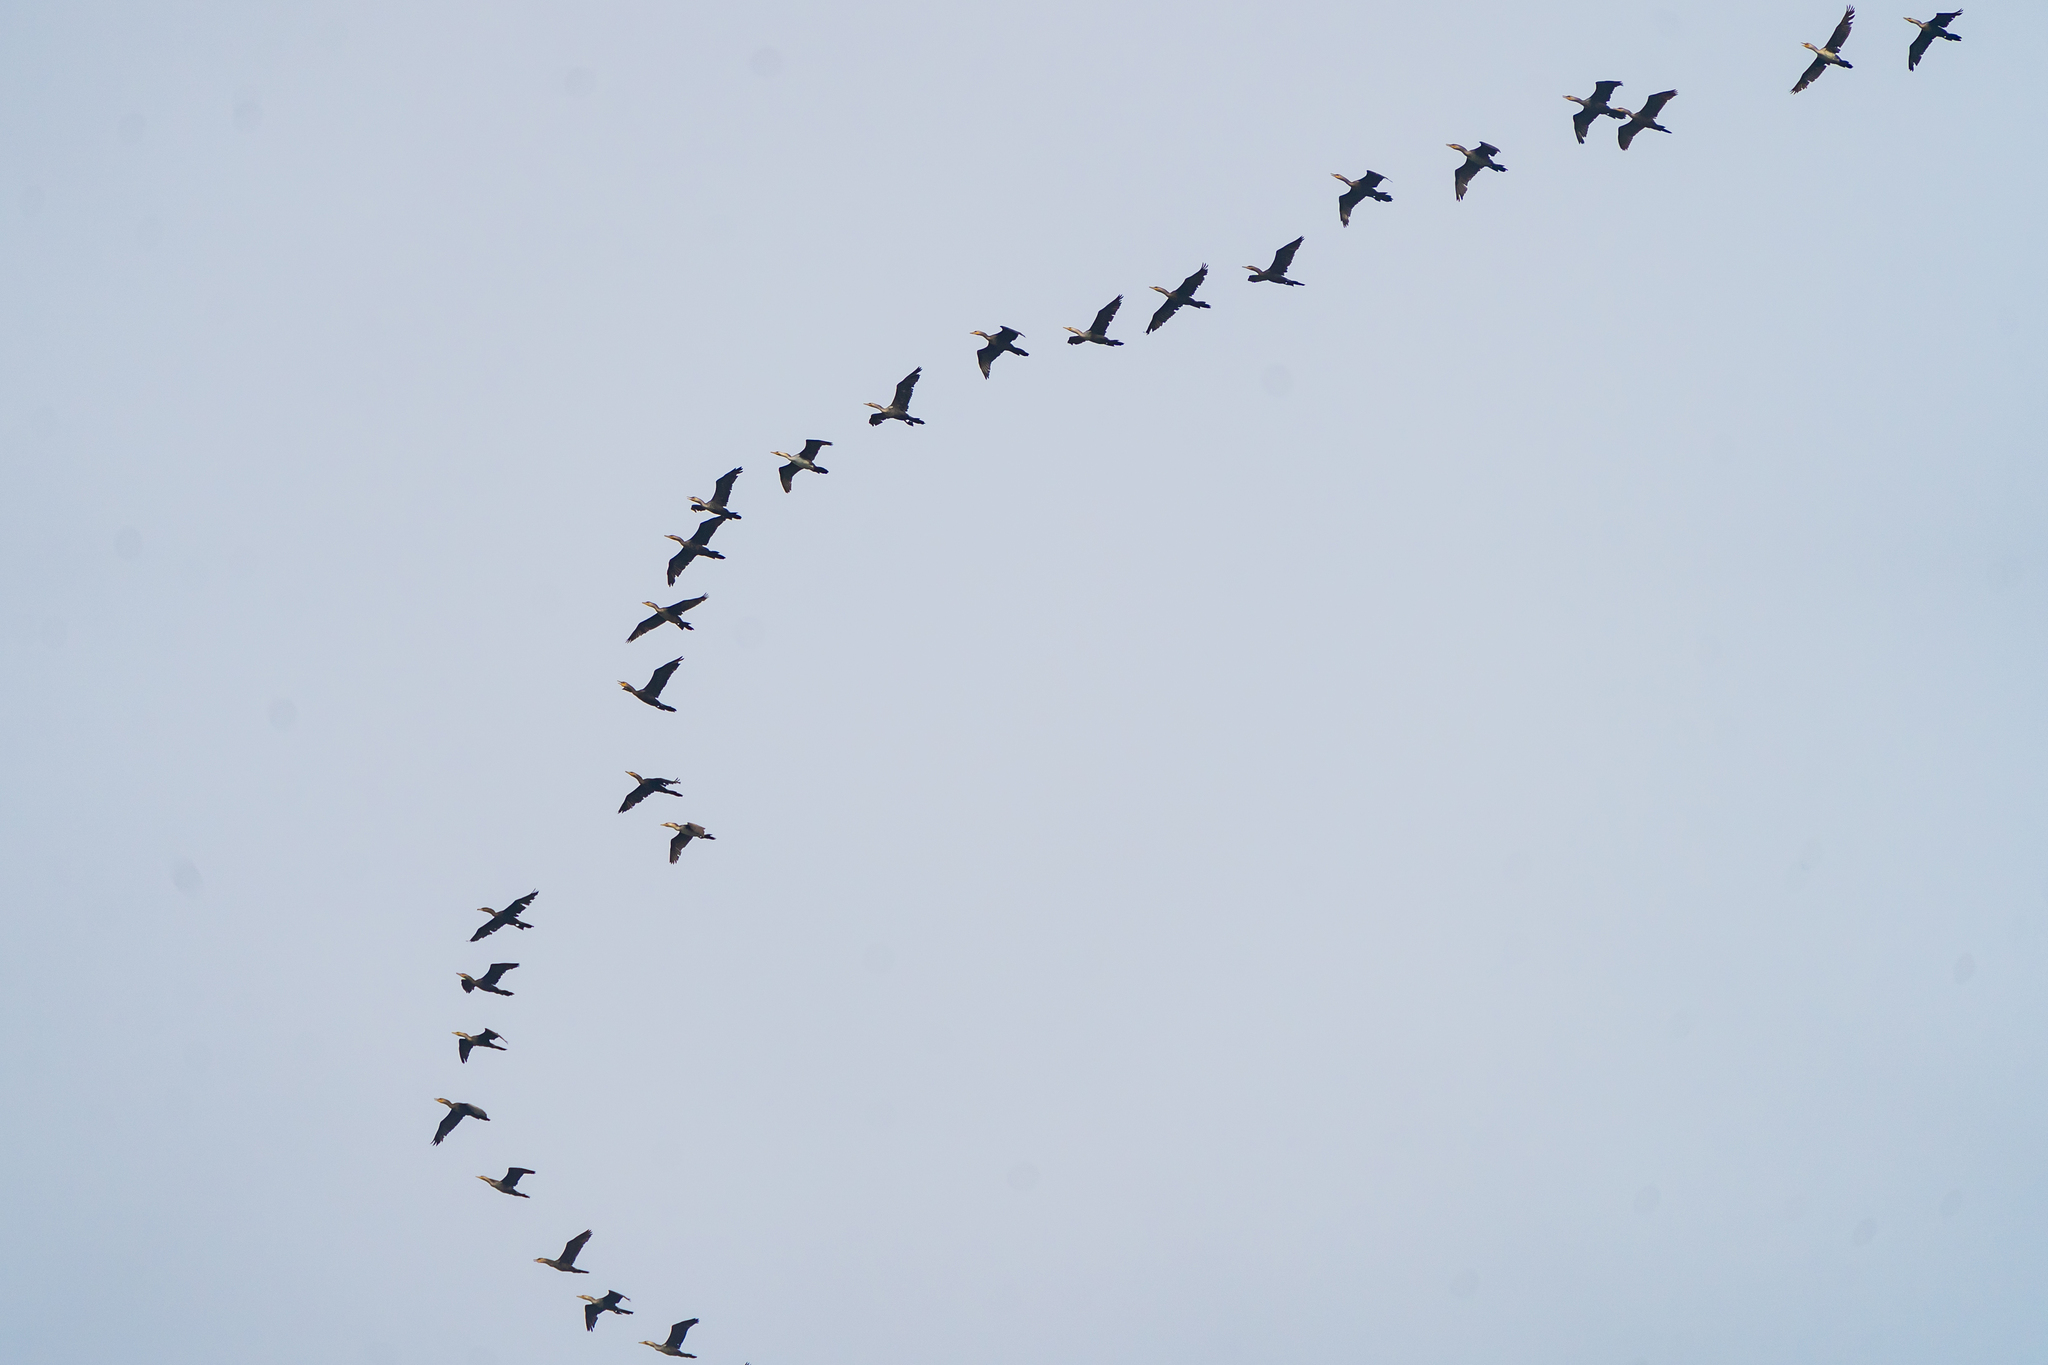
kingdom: Animalia
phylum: Chordata
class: Aves
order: Suliformes
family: Phalacrocoracidae
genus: Phalacrocorax
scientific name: Phalacrocorax brasilianus
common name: Neotropic cormorant
